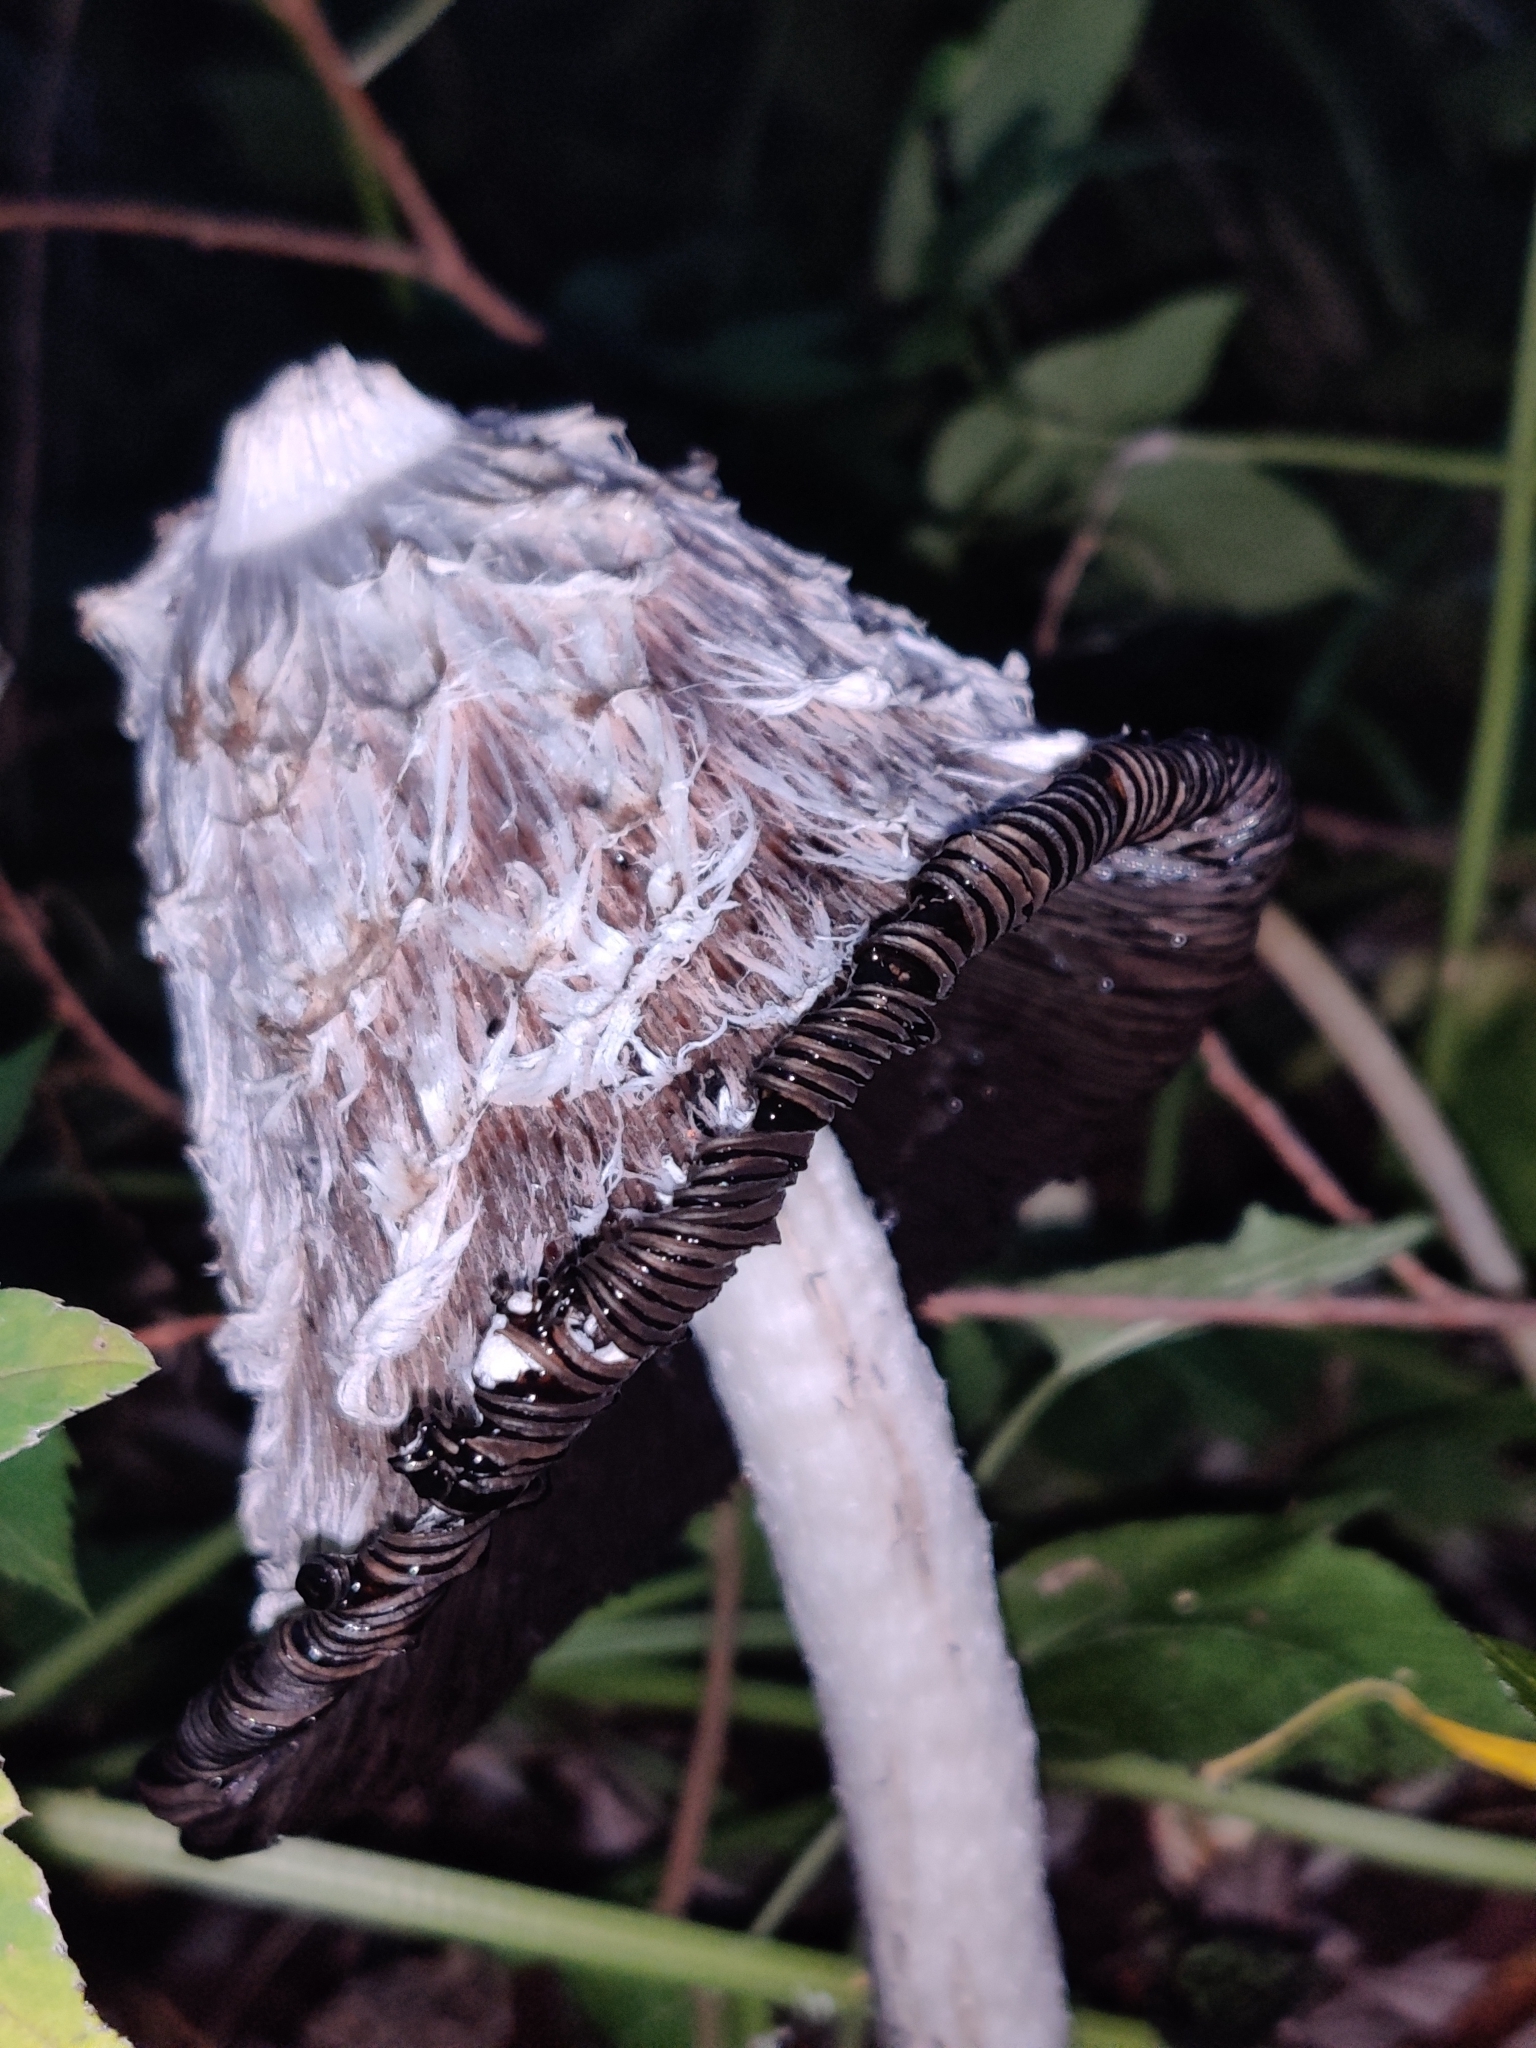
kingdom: Fungi
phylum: Basidiomycota
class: Agaricomycetes
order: Agaricales
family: Agaricaceae
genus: Coprinus
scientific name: Coprinus comatus
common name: Lawyer's wig
